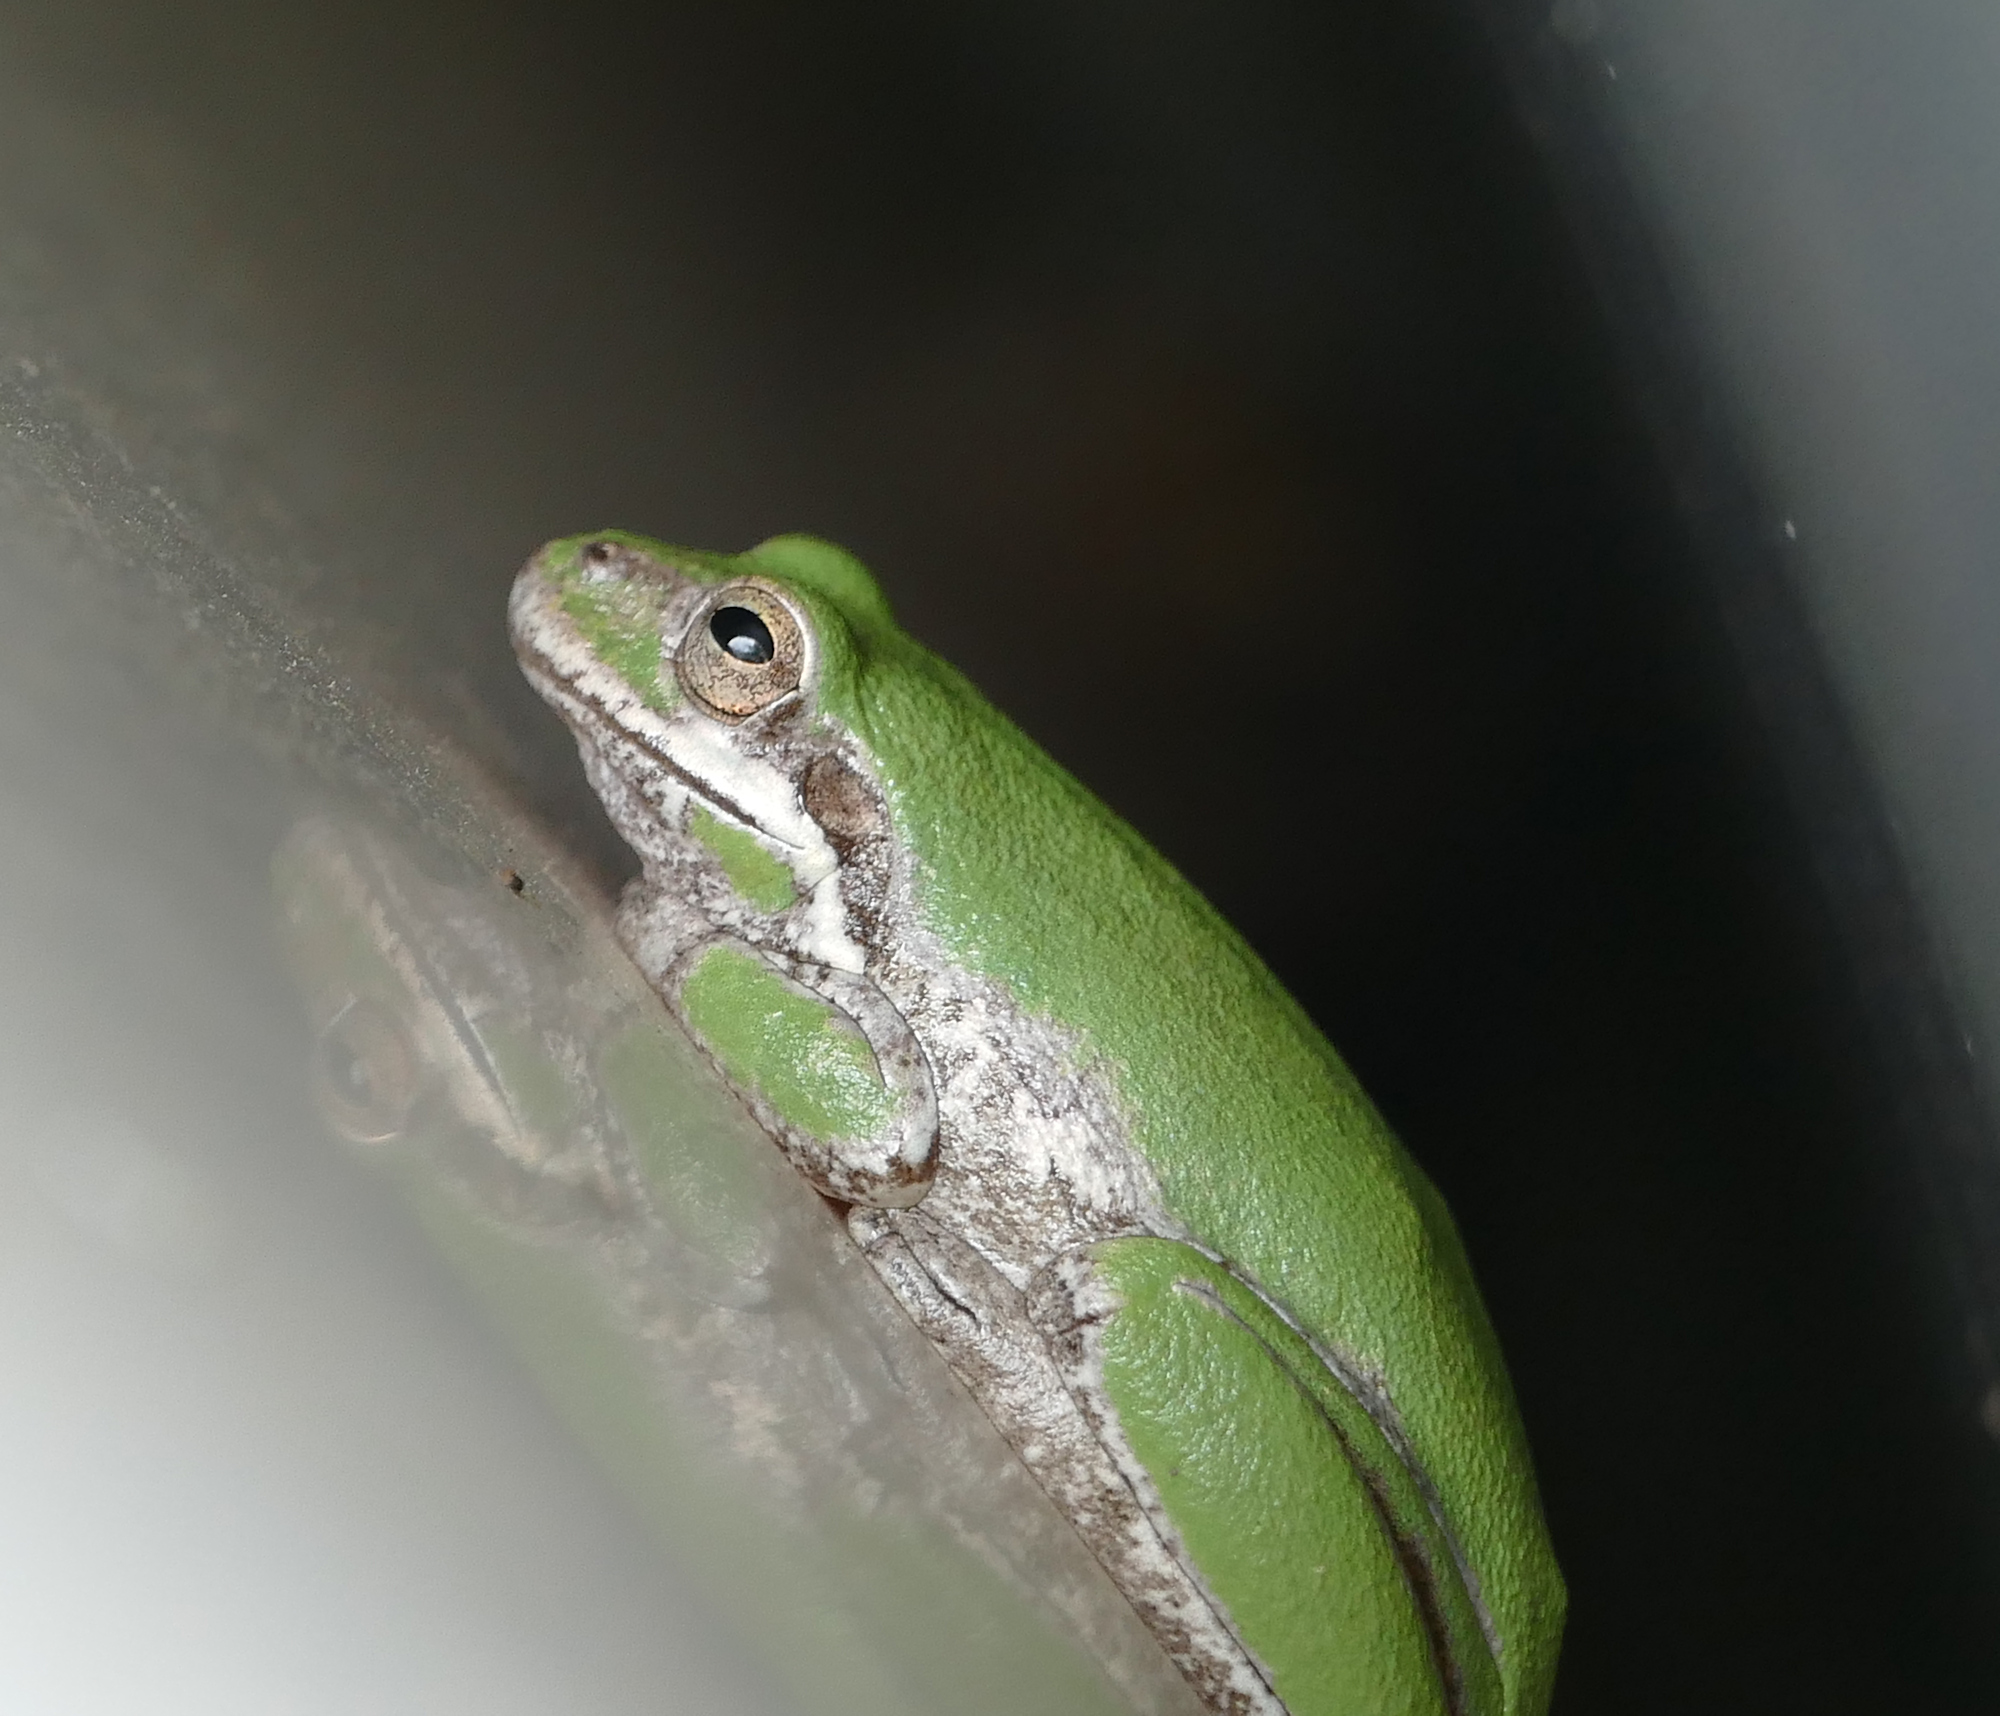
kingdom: Animalia
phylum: Chordata
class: Amphibia
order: Anura
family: Hylidae
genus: Dryophytes
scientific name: Dryophytes squirellus
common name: Squirrel treefrog
